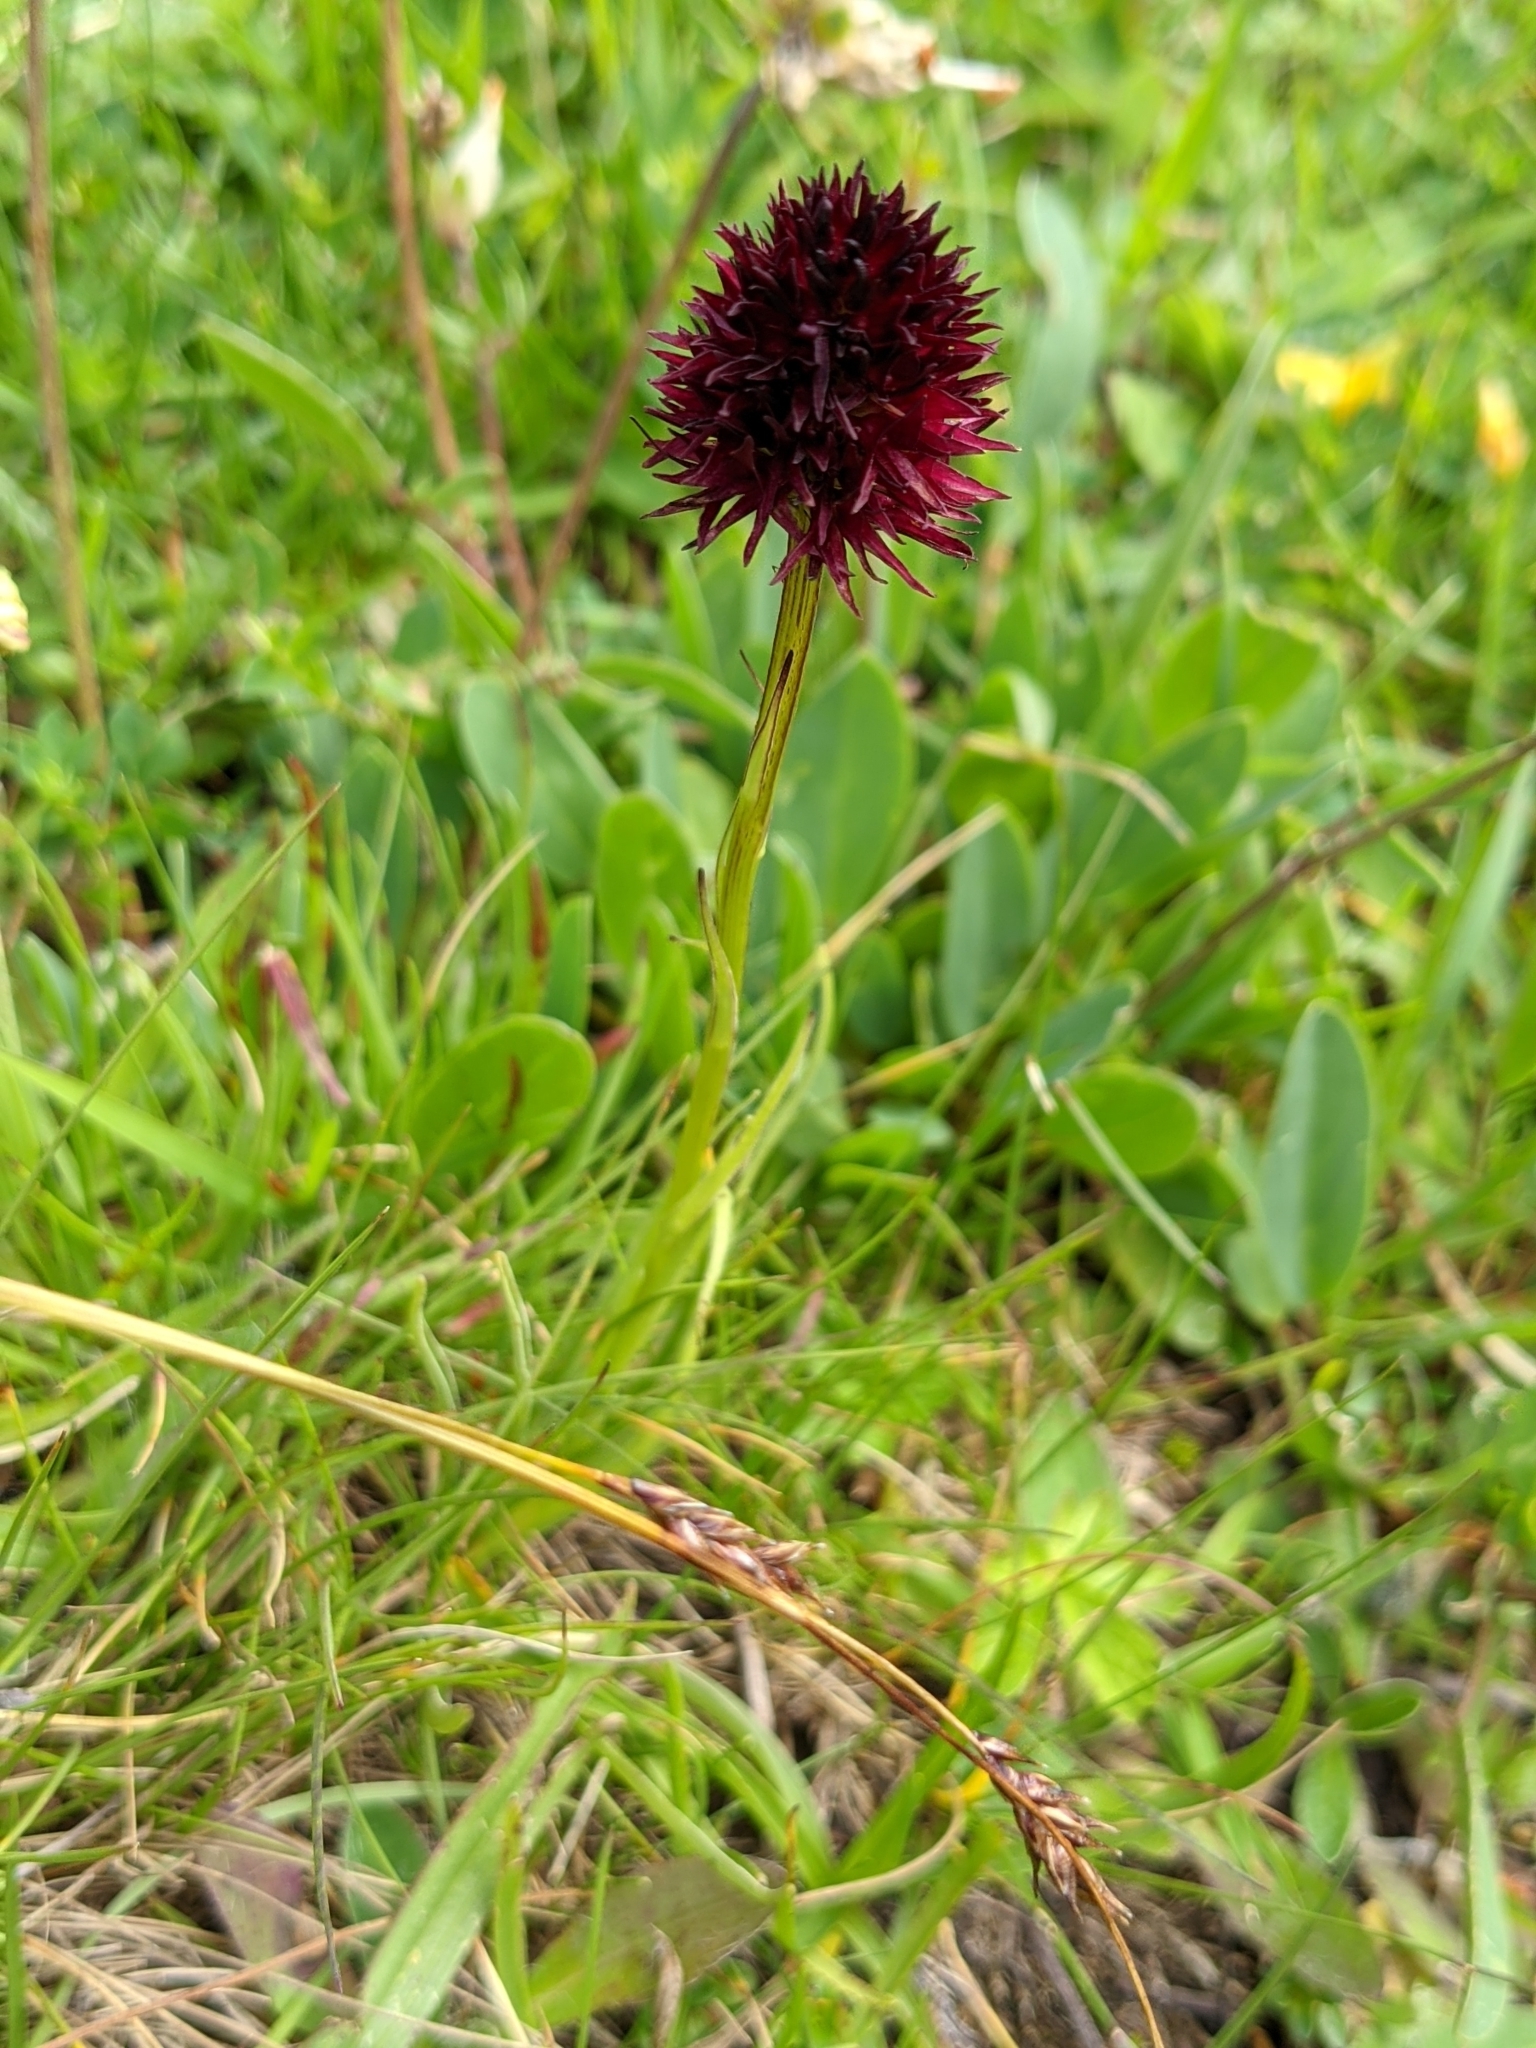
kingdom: Plantae
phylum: Tracheophyta
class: Liliopsida
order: Asparagales
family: Orchidaceae
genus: Gymnadenia
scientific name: Gymnadenia rhellicani
